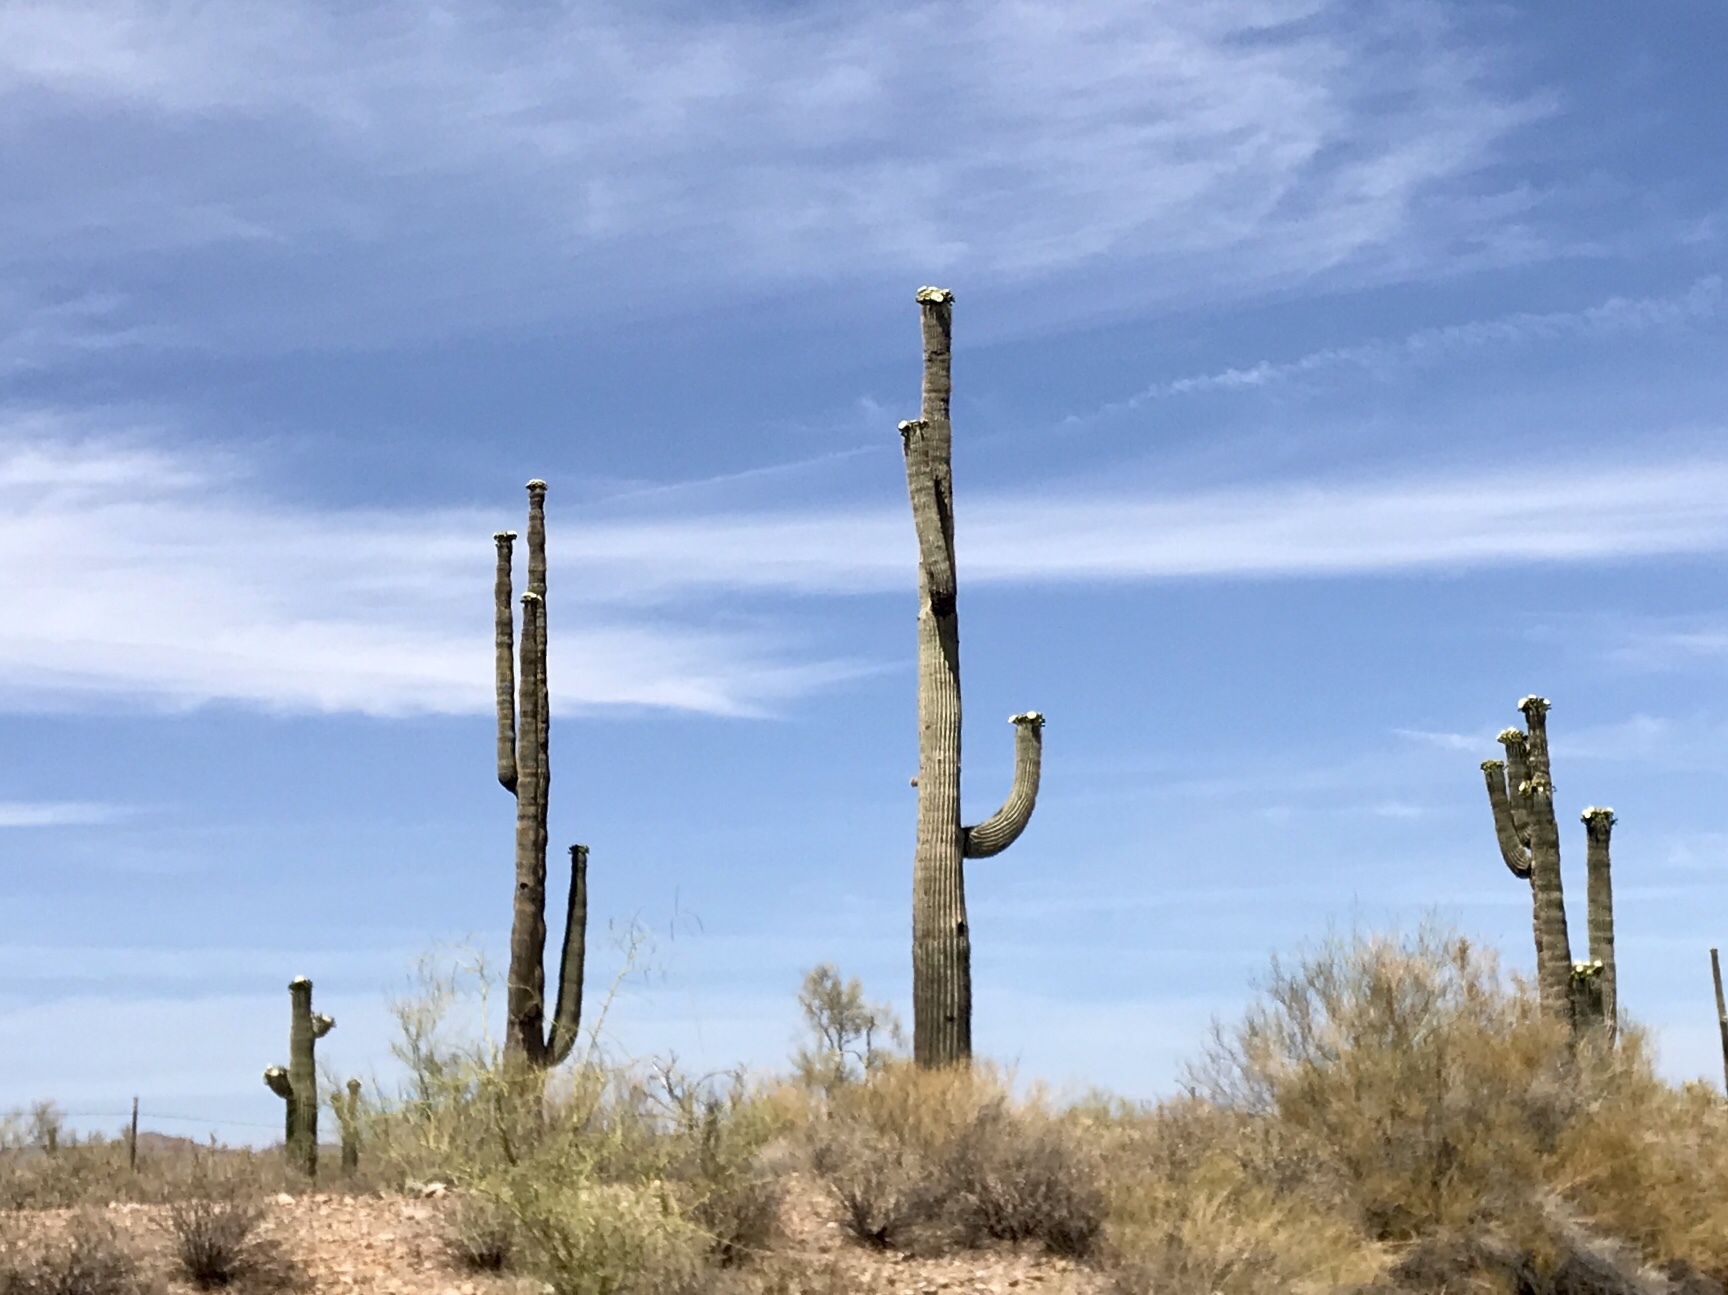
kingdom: Plantae
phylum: Tracheophyta
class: Magnoliopsida
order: Caryophyllales
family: Cactaceae
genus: Carnegiea
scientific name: Carnegiea gigantea
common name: Saguaro
